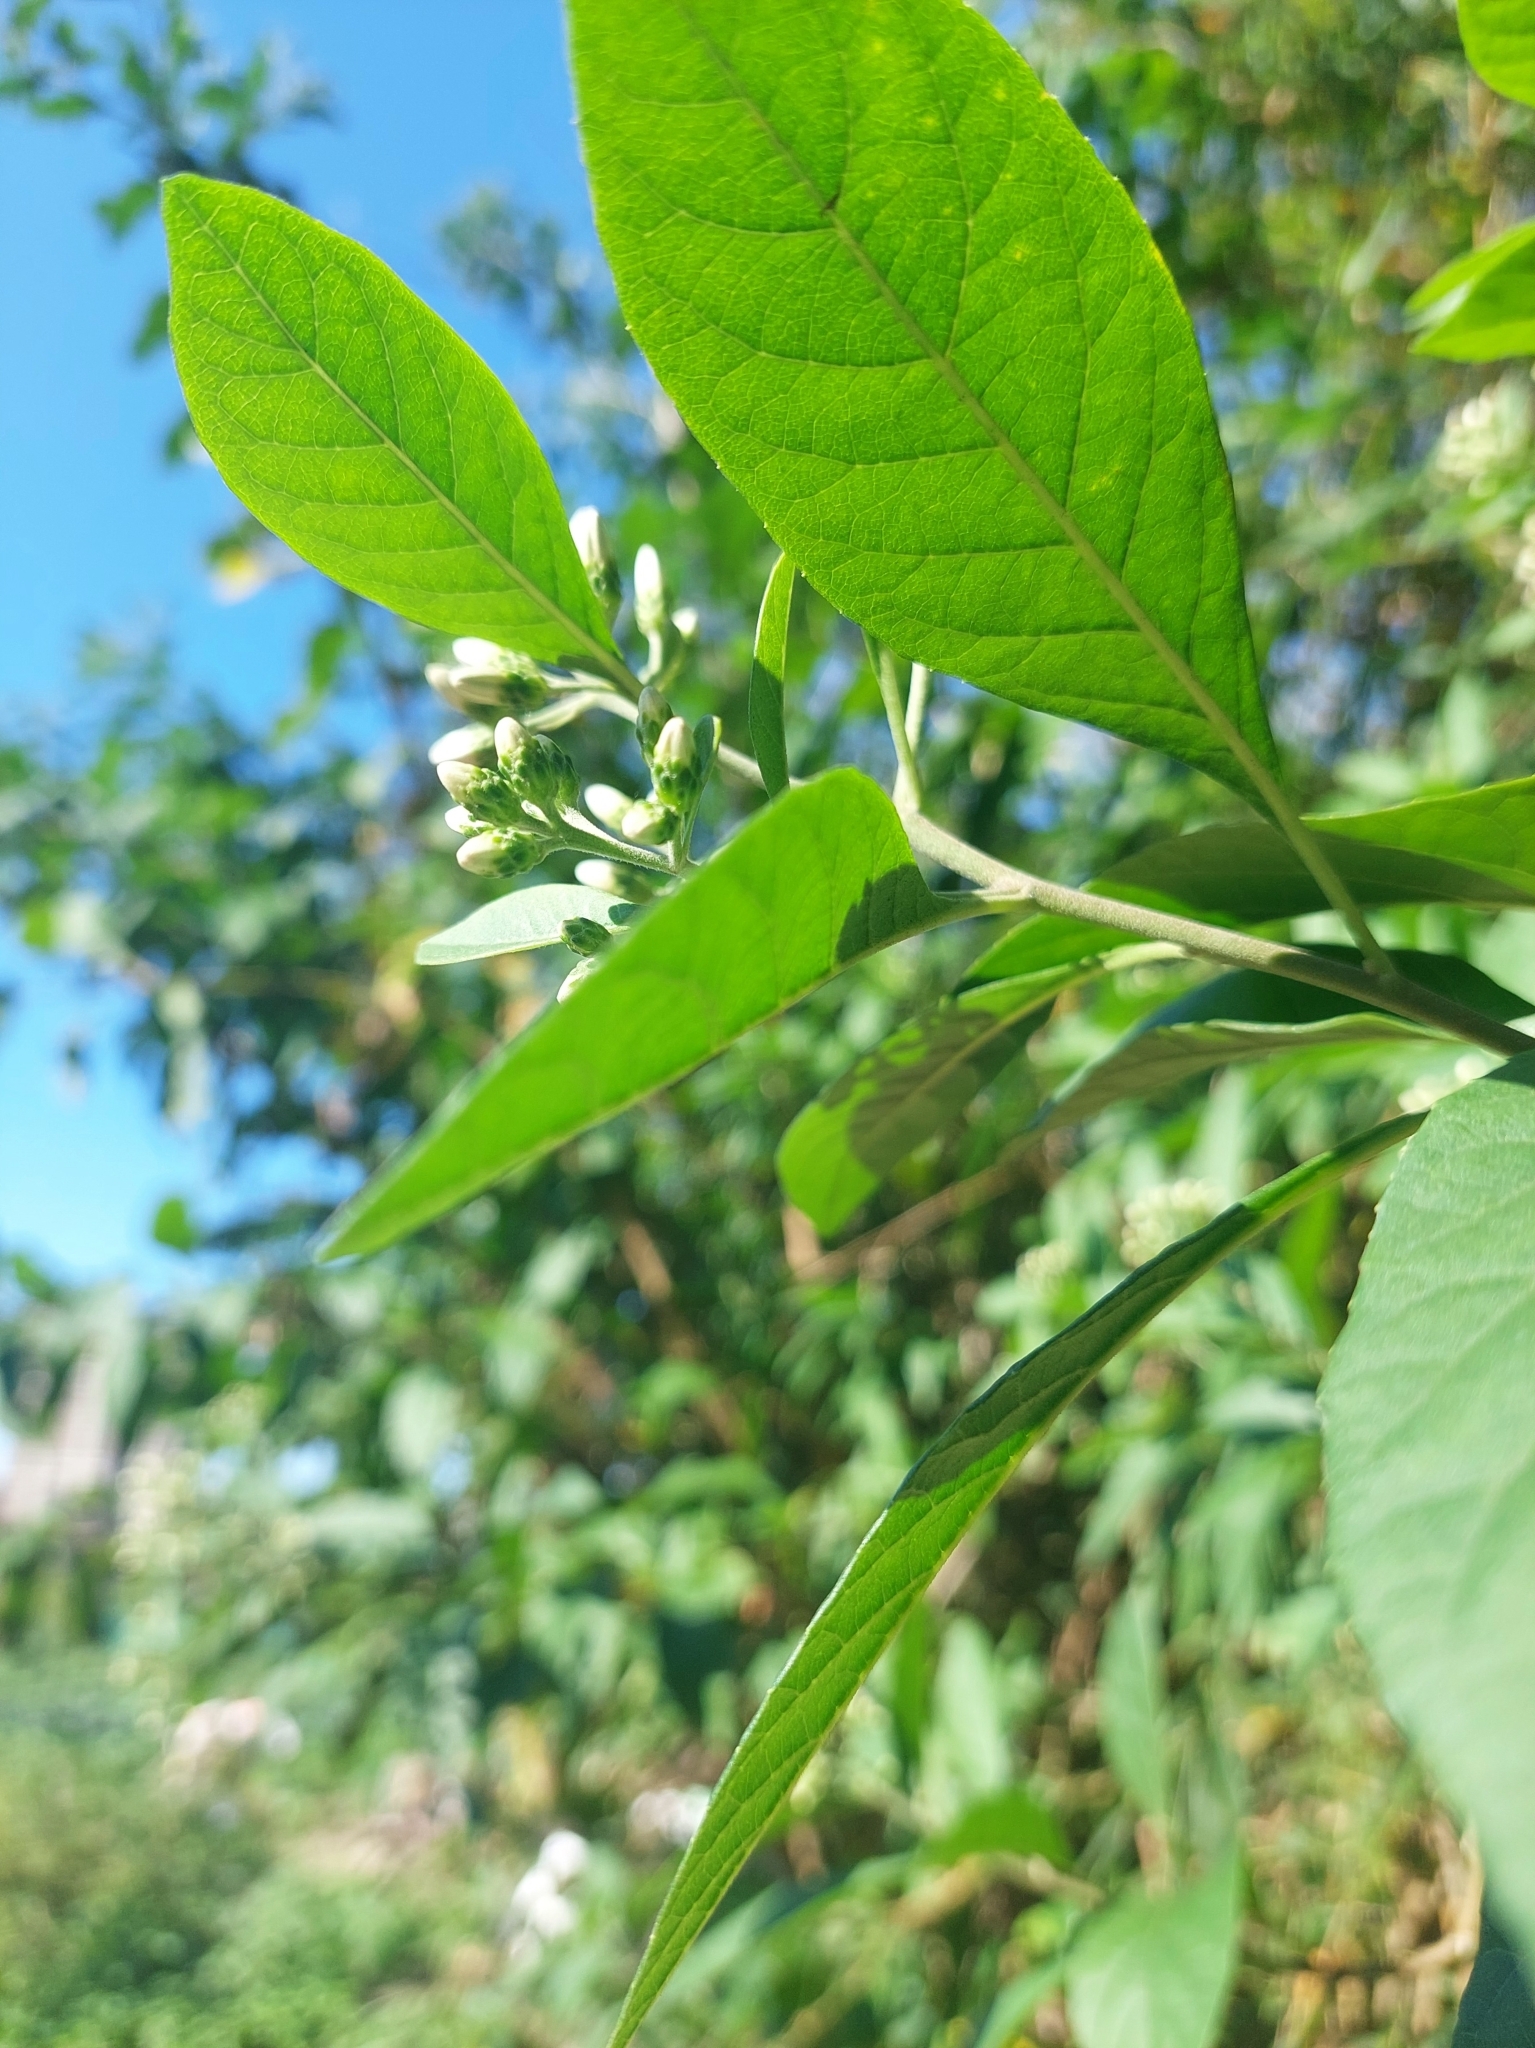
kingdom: Plantae
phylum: Tracheophyta
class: Magnoliopsida
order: Asterales
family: Asteraceae
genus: Gymnanthemum
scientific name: Gymnanthemum amygdalinum
